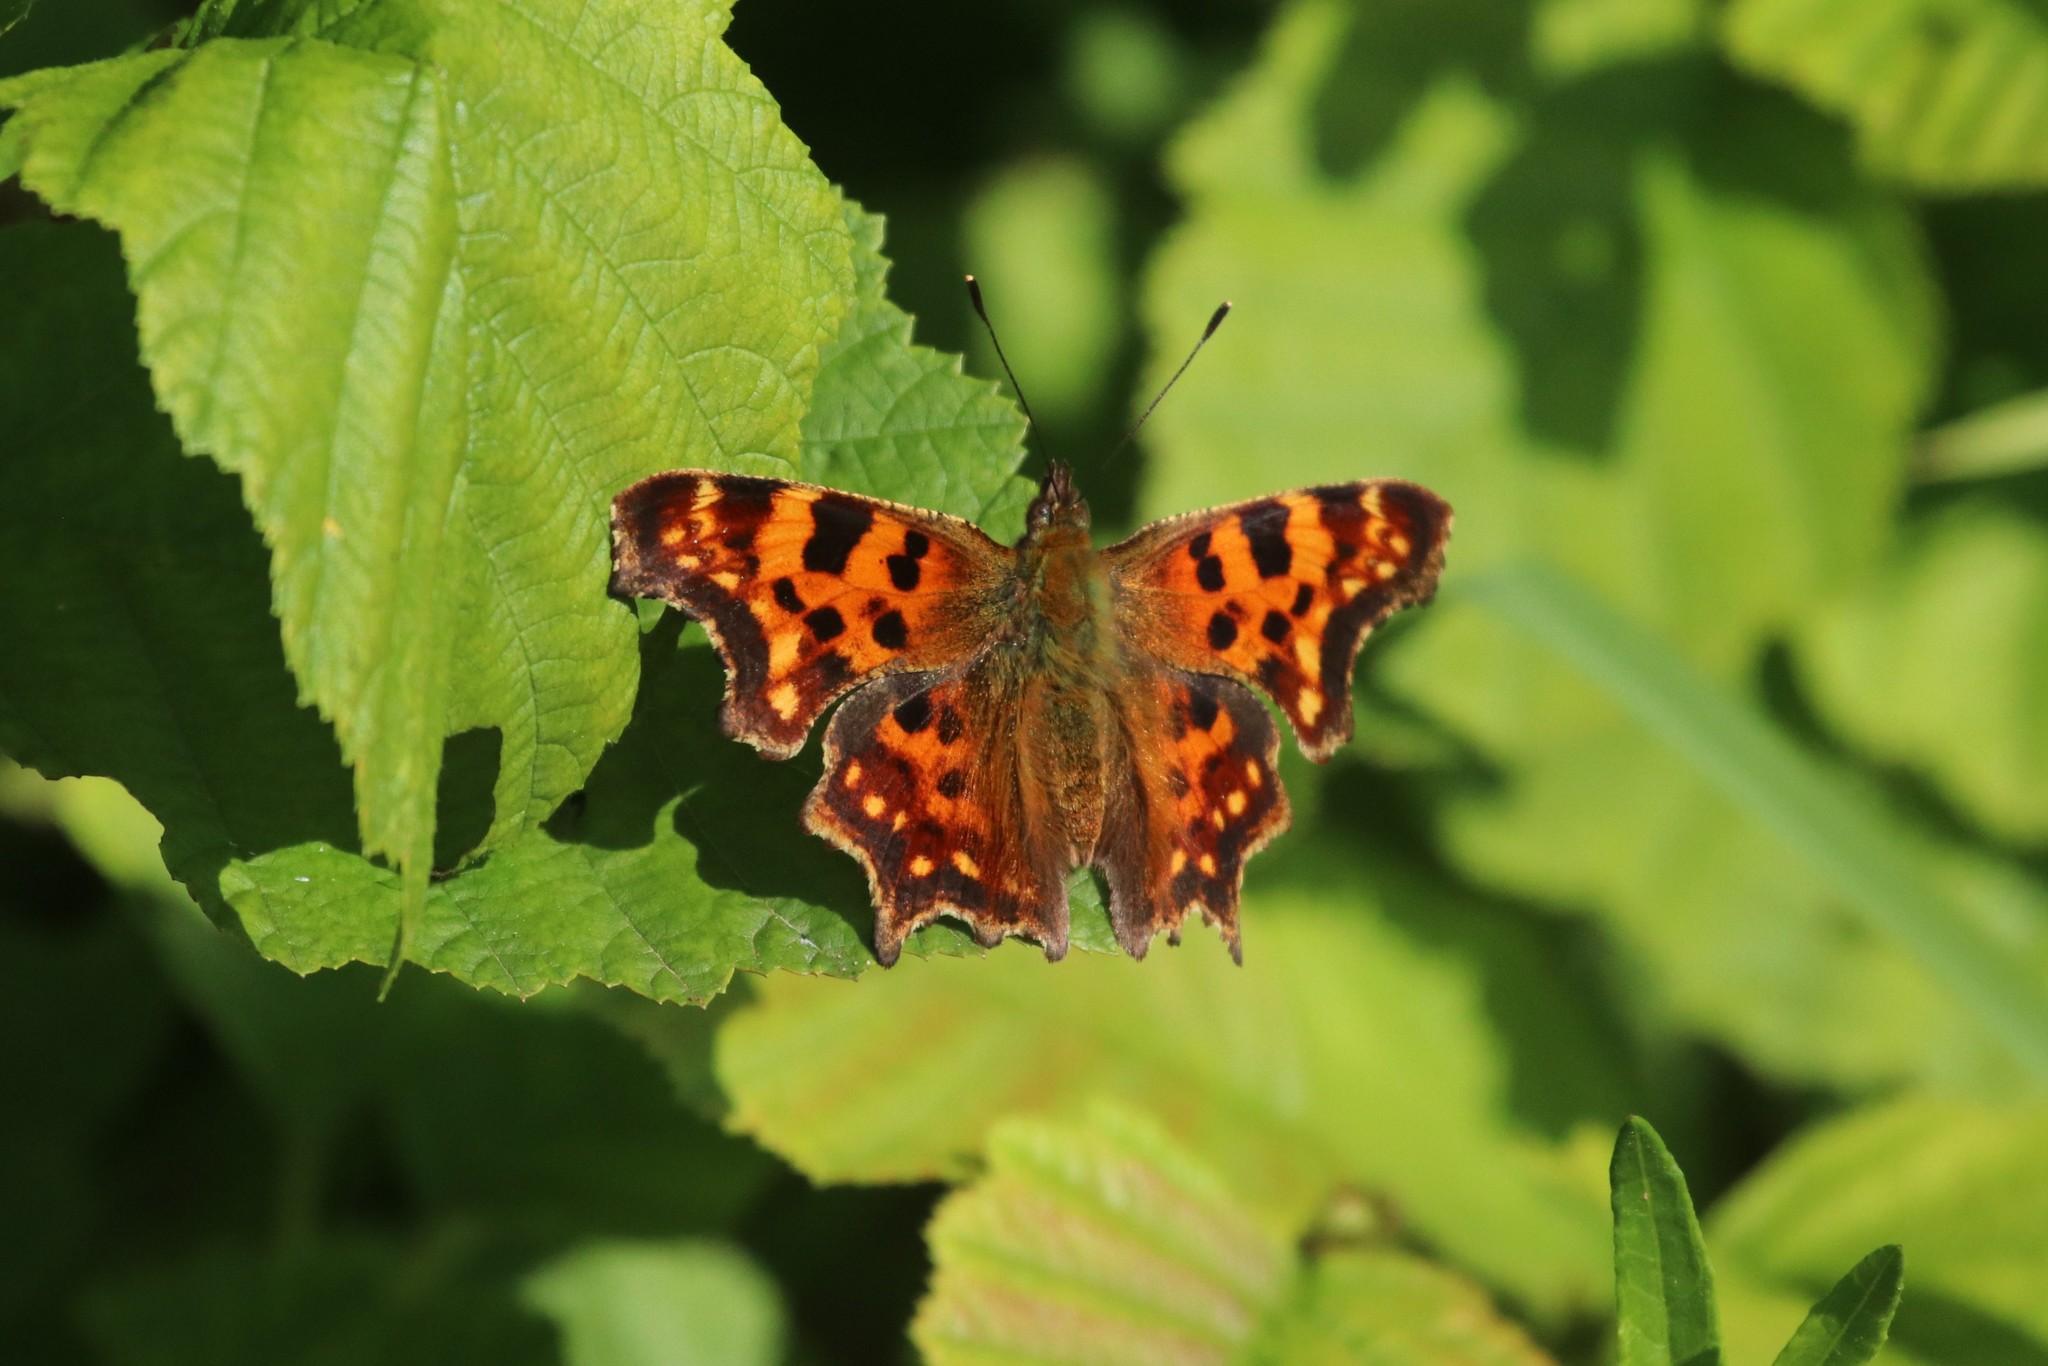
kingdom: Animalia
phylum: Arthropoda
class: Insecta
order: Lepidoptera
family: Nymphalidae
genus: Polygonia
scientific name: Polygonia c-album
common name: Comma
